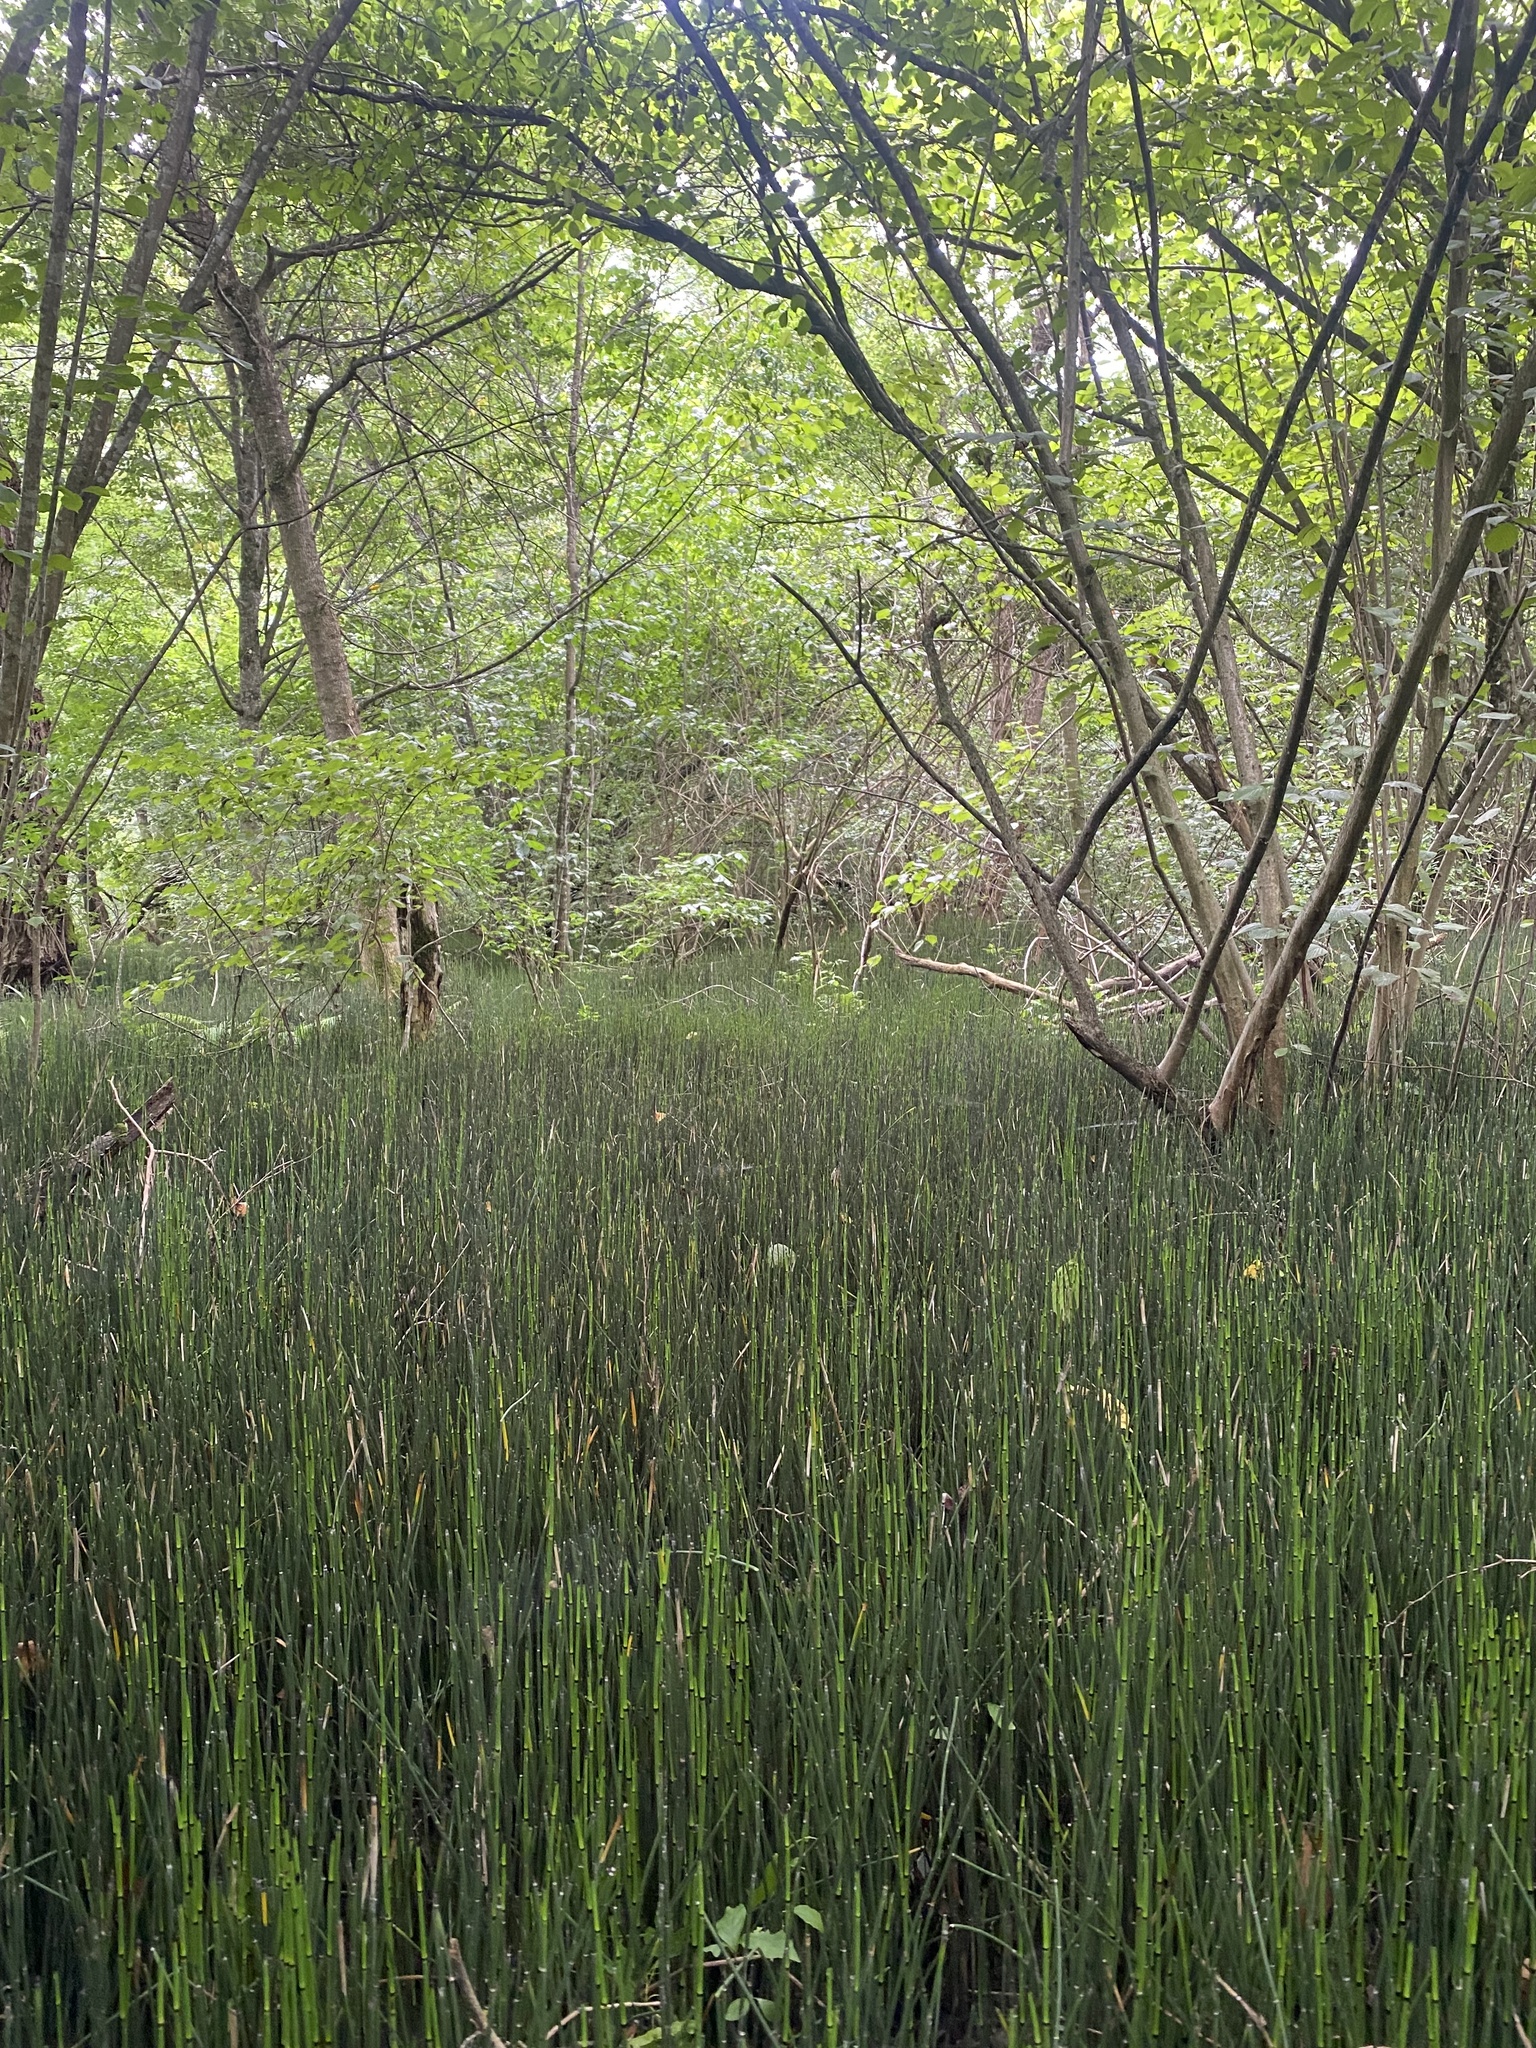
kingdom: Plantae
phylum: Tracheophyta
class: Polypodiopsida
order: Equisetales
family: Equisetaceae
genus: Equisetum
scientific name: Equisetum hyemale
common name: Rough horsetail
